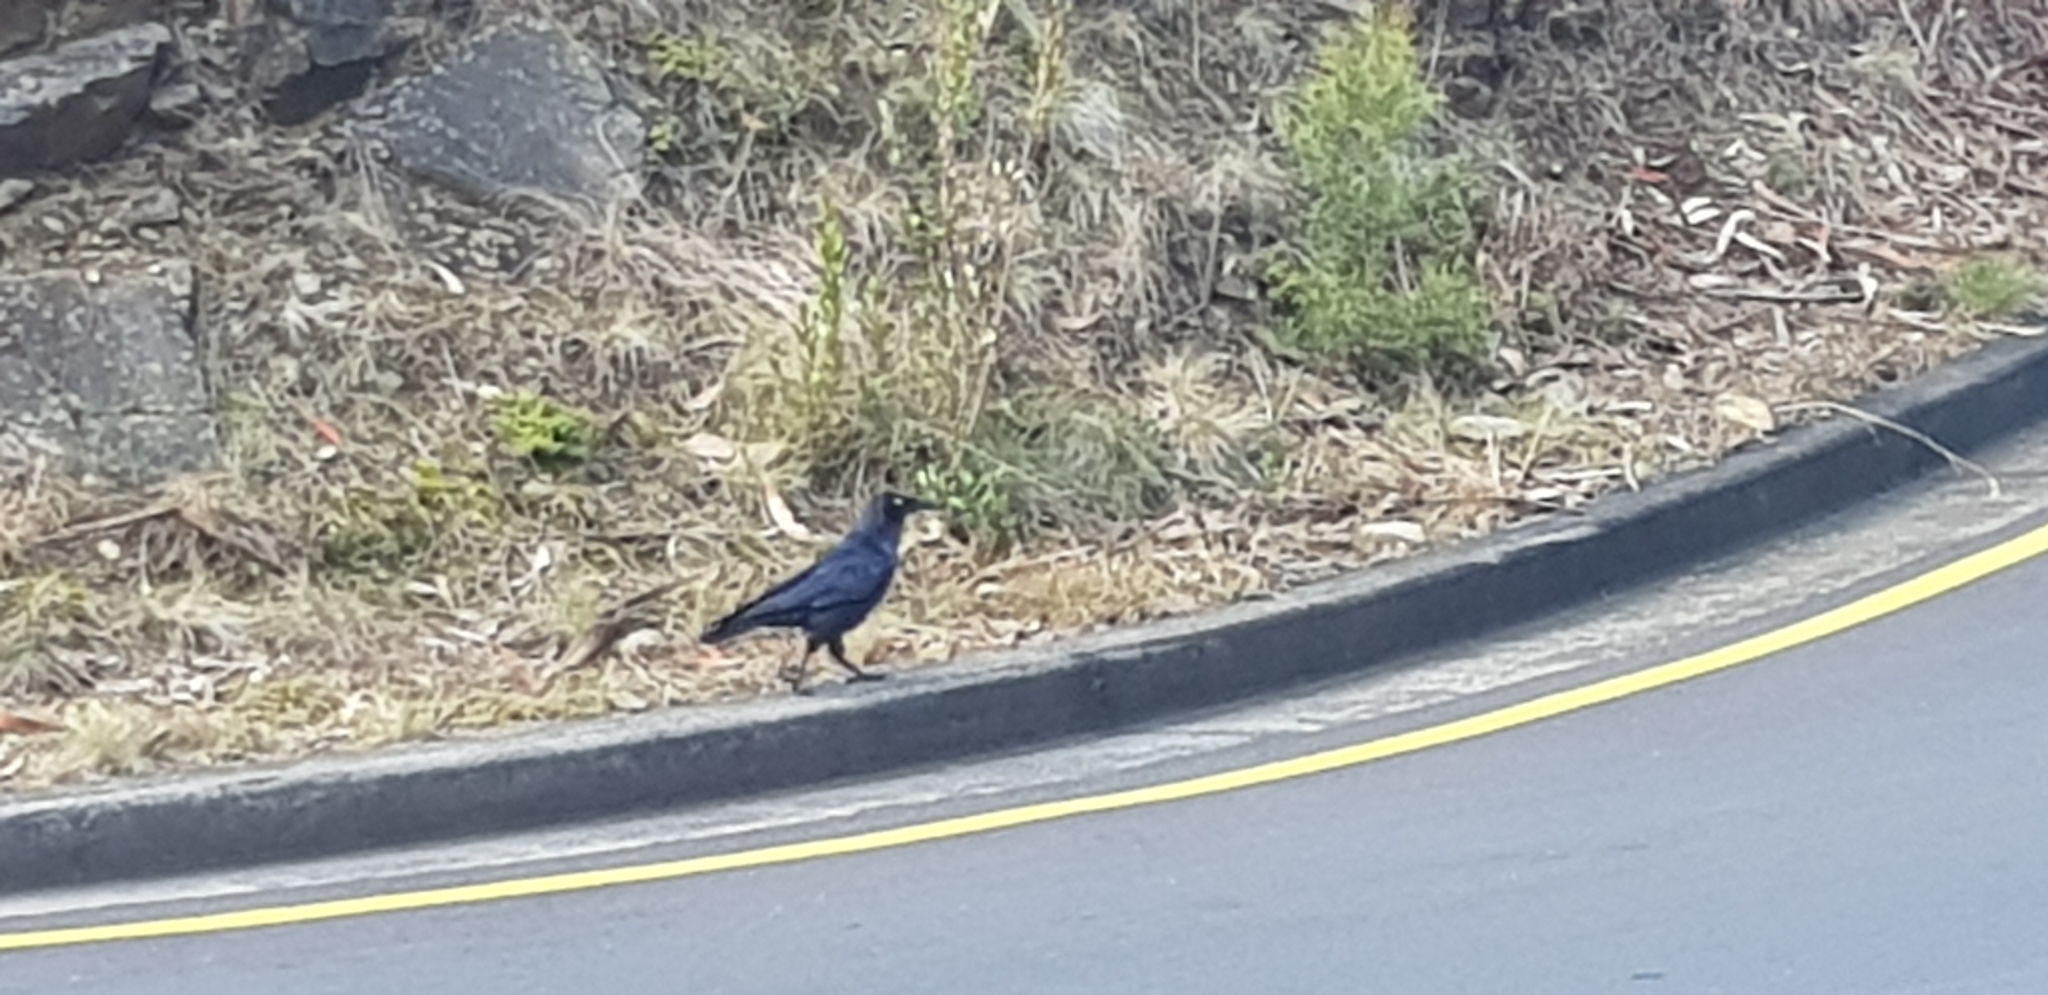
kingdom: Animalia
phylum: Chordata
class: Aves
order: Passeriformes
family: Corvidae
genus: Corvus
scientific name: Corvus tasmanicus
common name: Forest raven
